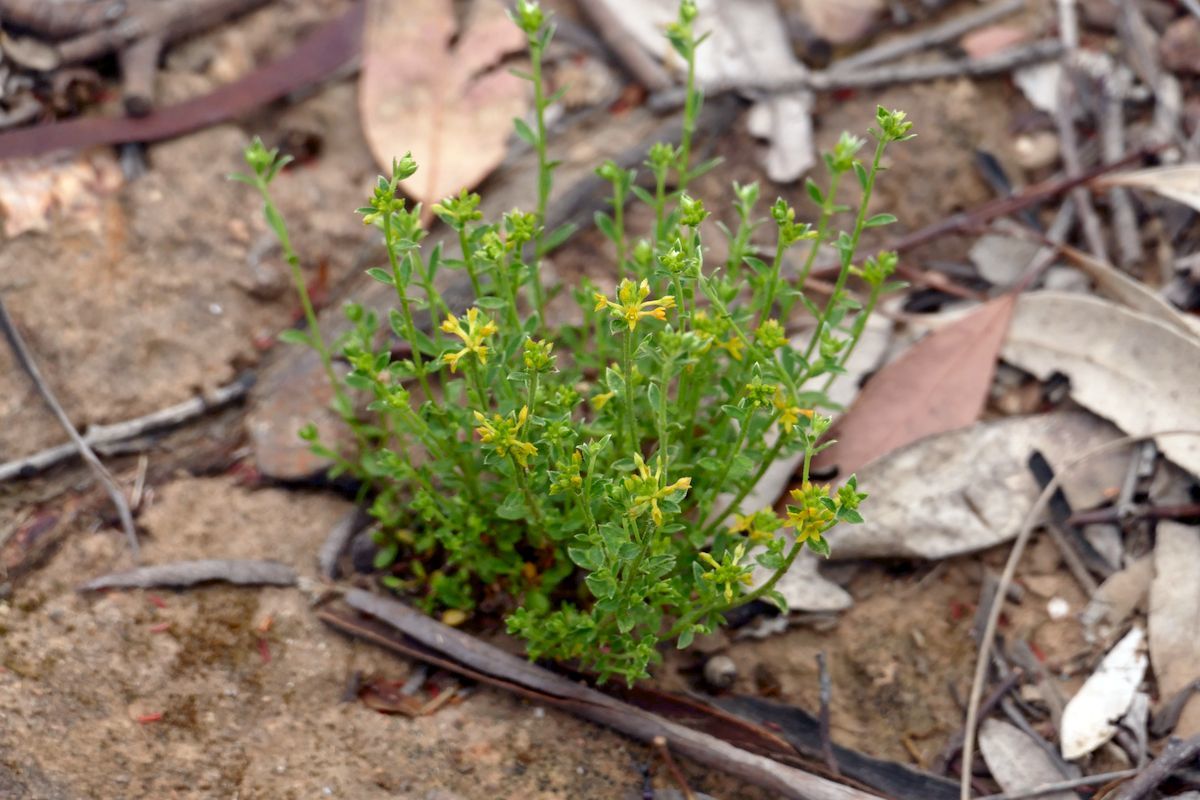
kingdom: Plantae
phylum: Tracheophyta
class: Magnoliopsida
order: Malvales
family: Thymelaeaceae
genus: Pimelea
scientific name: Pimelea curviflora
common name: Curved riceflower
